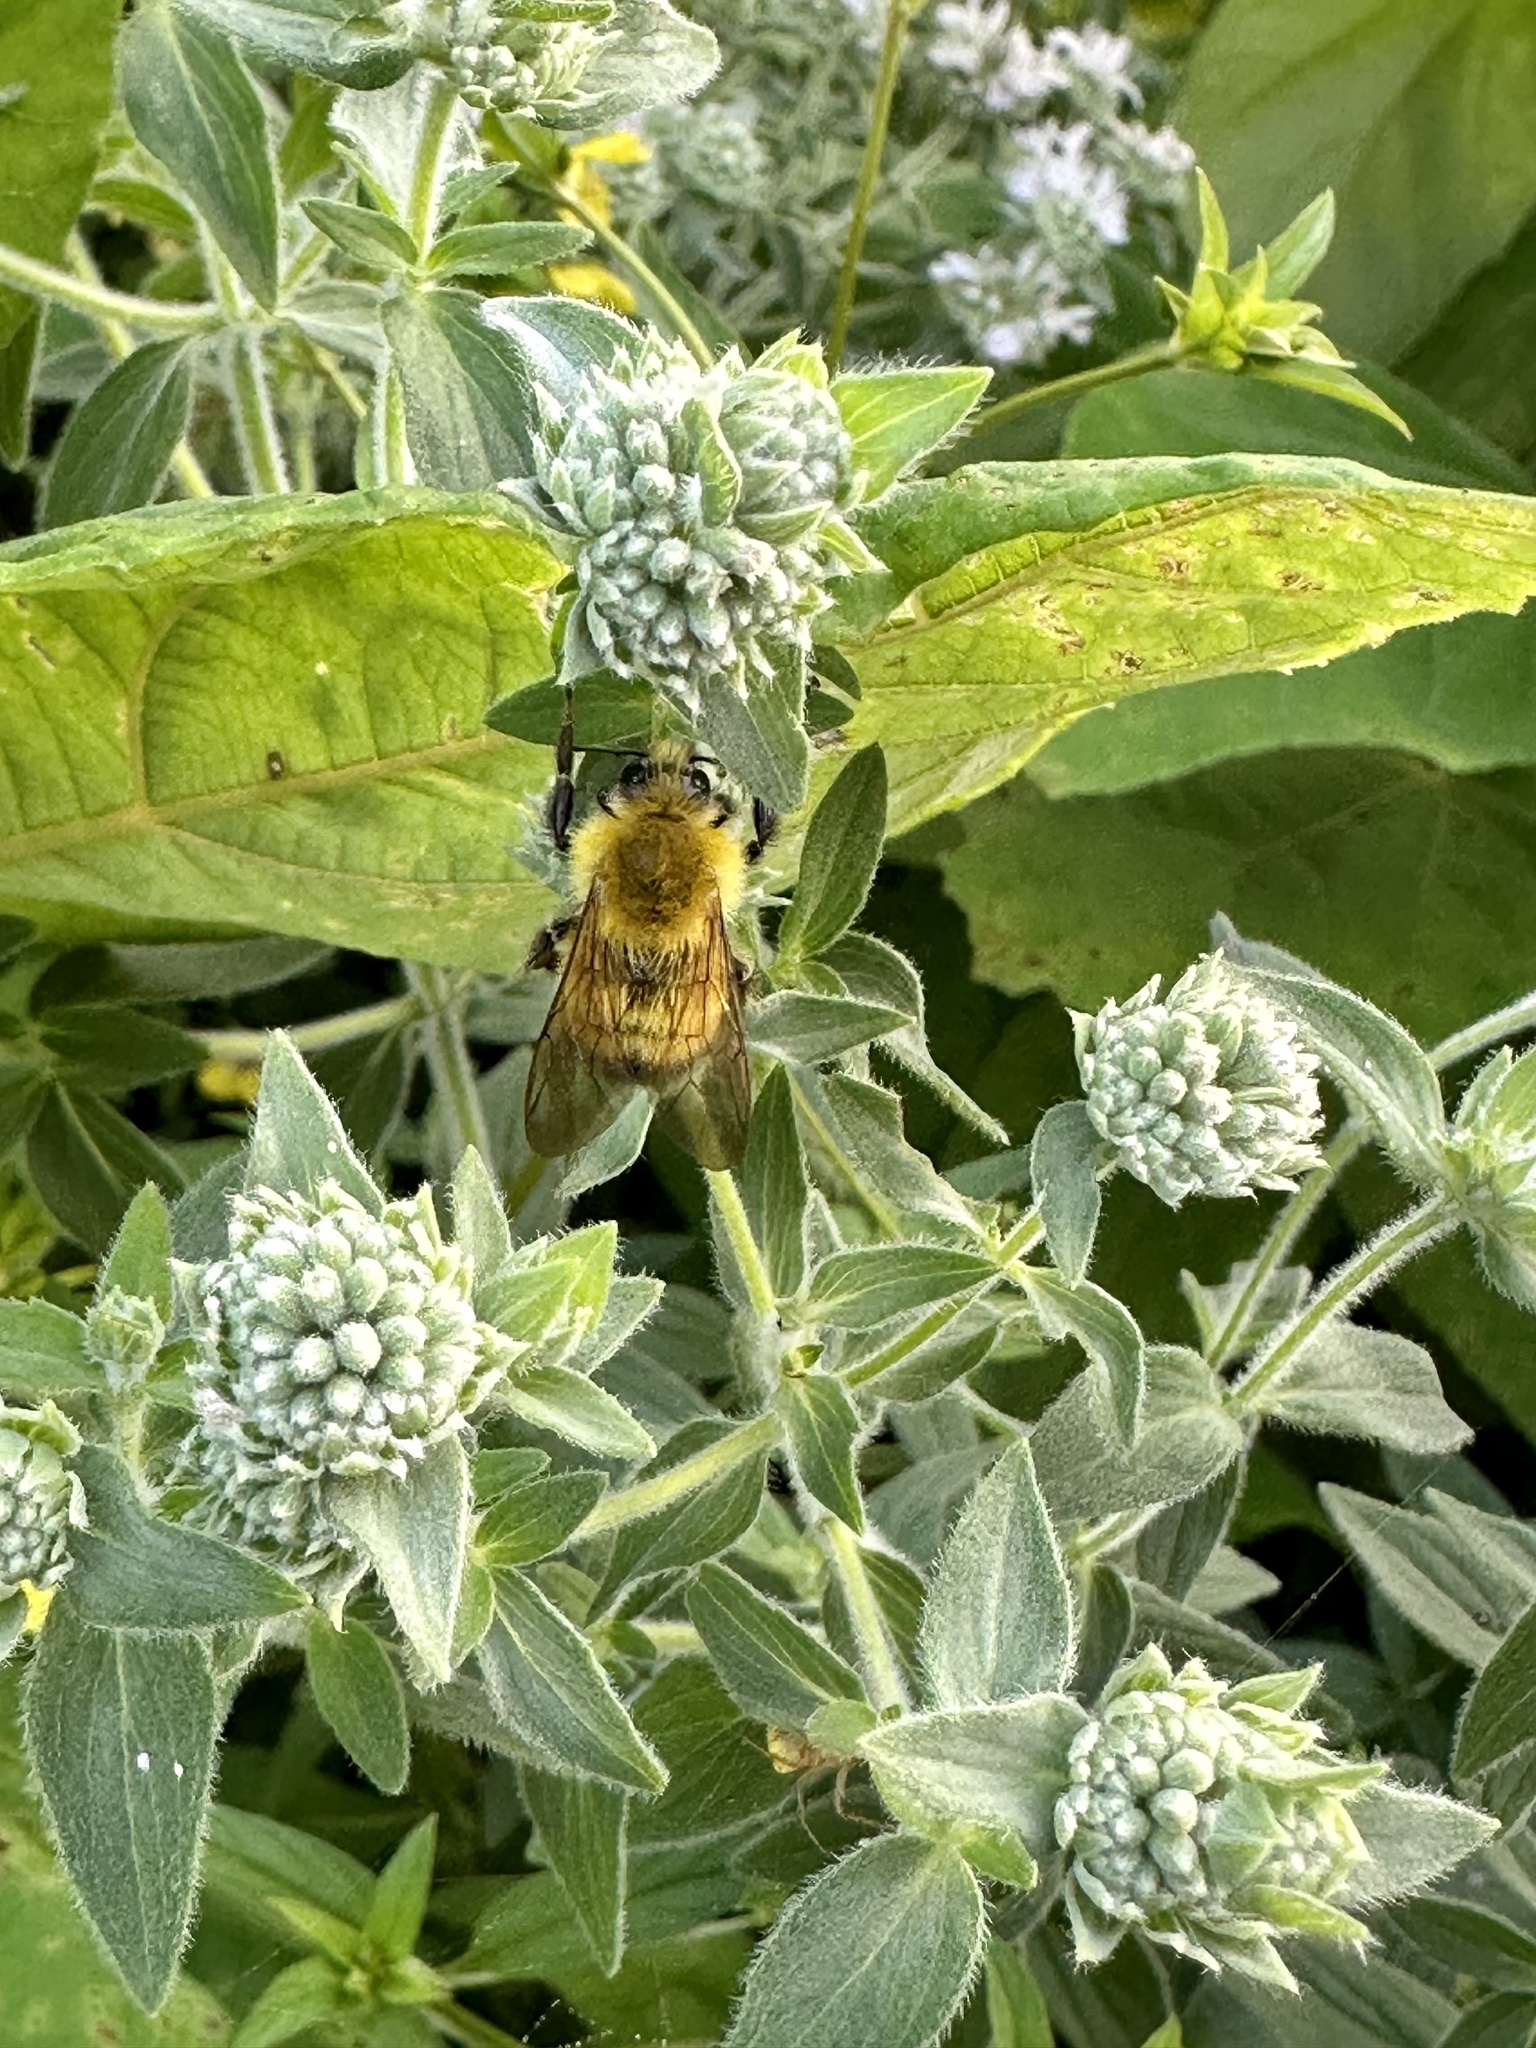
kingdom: Animalia
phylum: Arthropoda
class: Insecta
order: Hymenoptera
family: Apidae
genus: Bombus
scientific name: Bombus perplexus
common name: Confusing bumble bee
